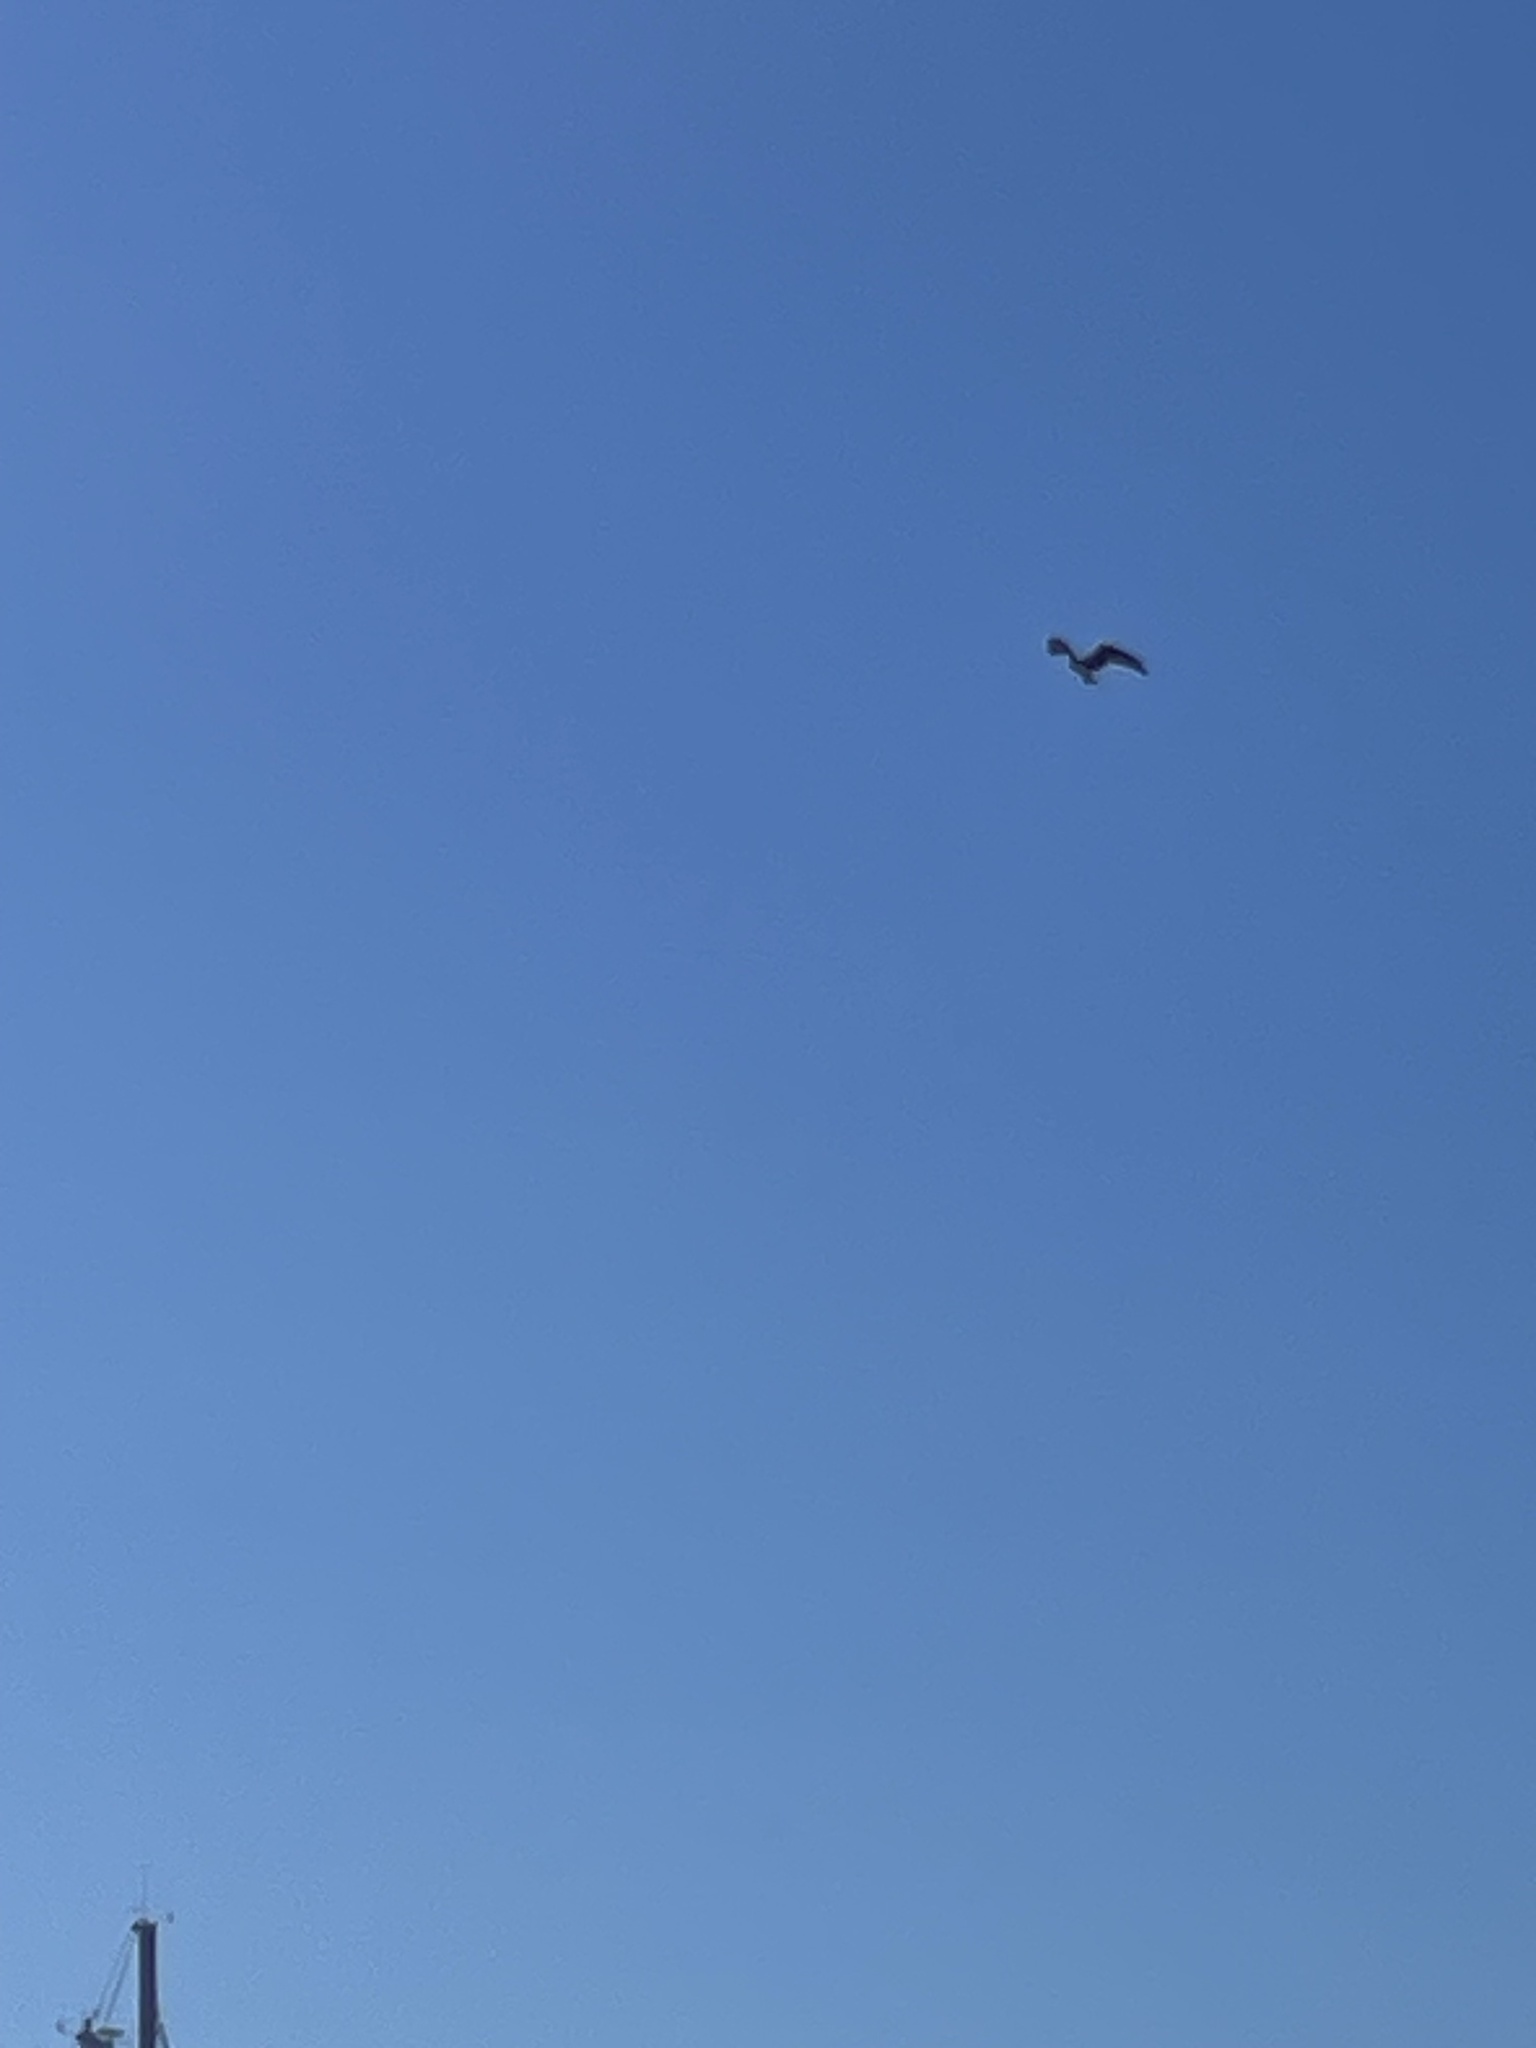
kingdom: Animalia
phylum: Chordata
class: Aves
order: Accipitriformes
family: Pandionidae
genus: Pandion
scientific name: Pandion haliaetus
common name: Osprey
